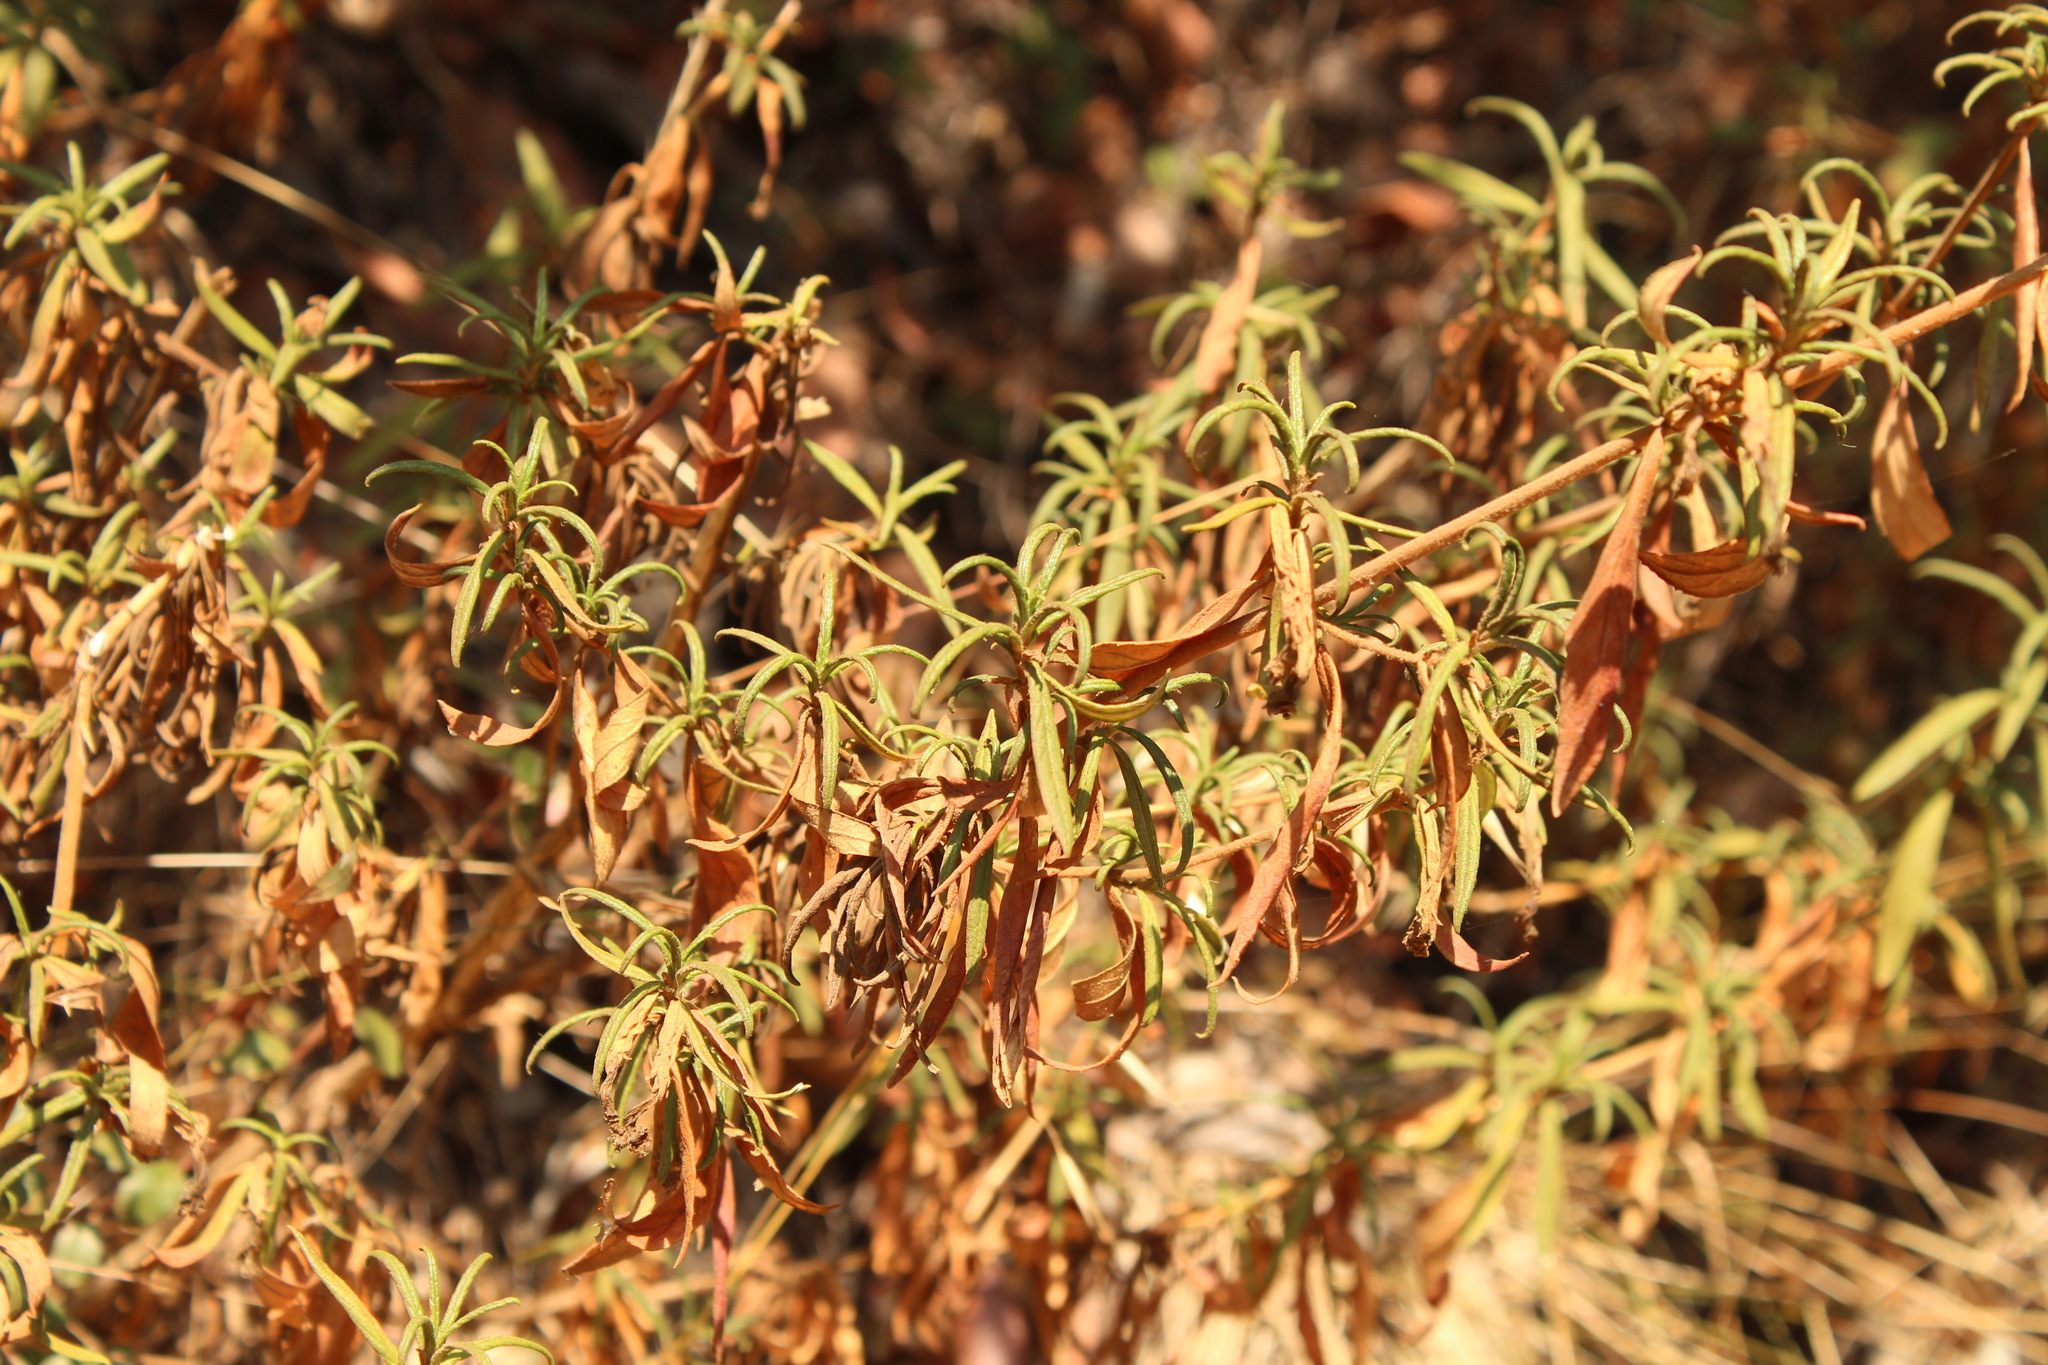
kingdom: Plantae
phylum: Tracheophyta
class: Magnoliopsida
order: Lamiales
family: Phrymaceae
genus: Diplacus
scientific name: Diplacus aurantiacus
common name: Bush monkey-flower
